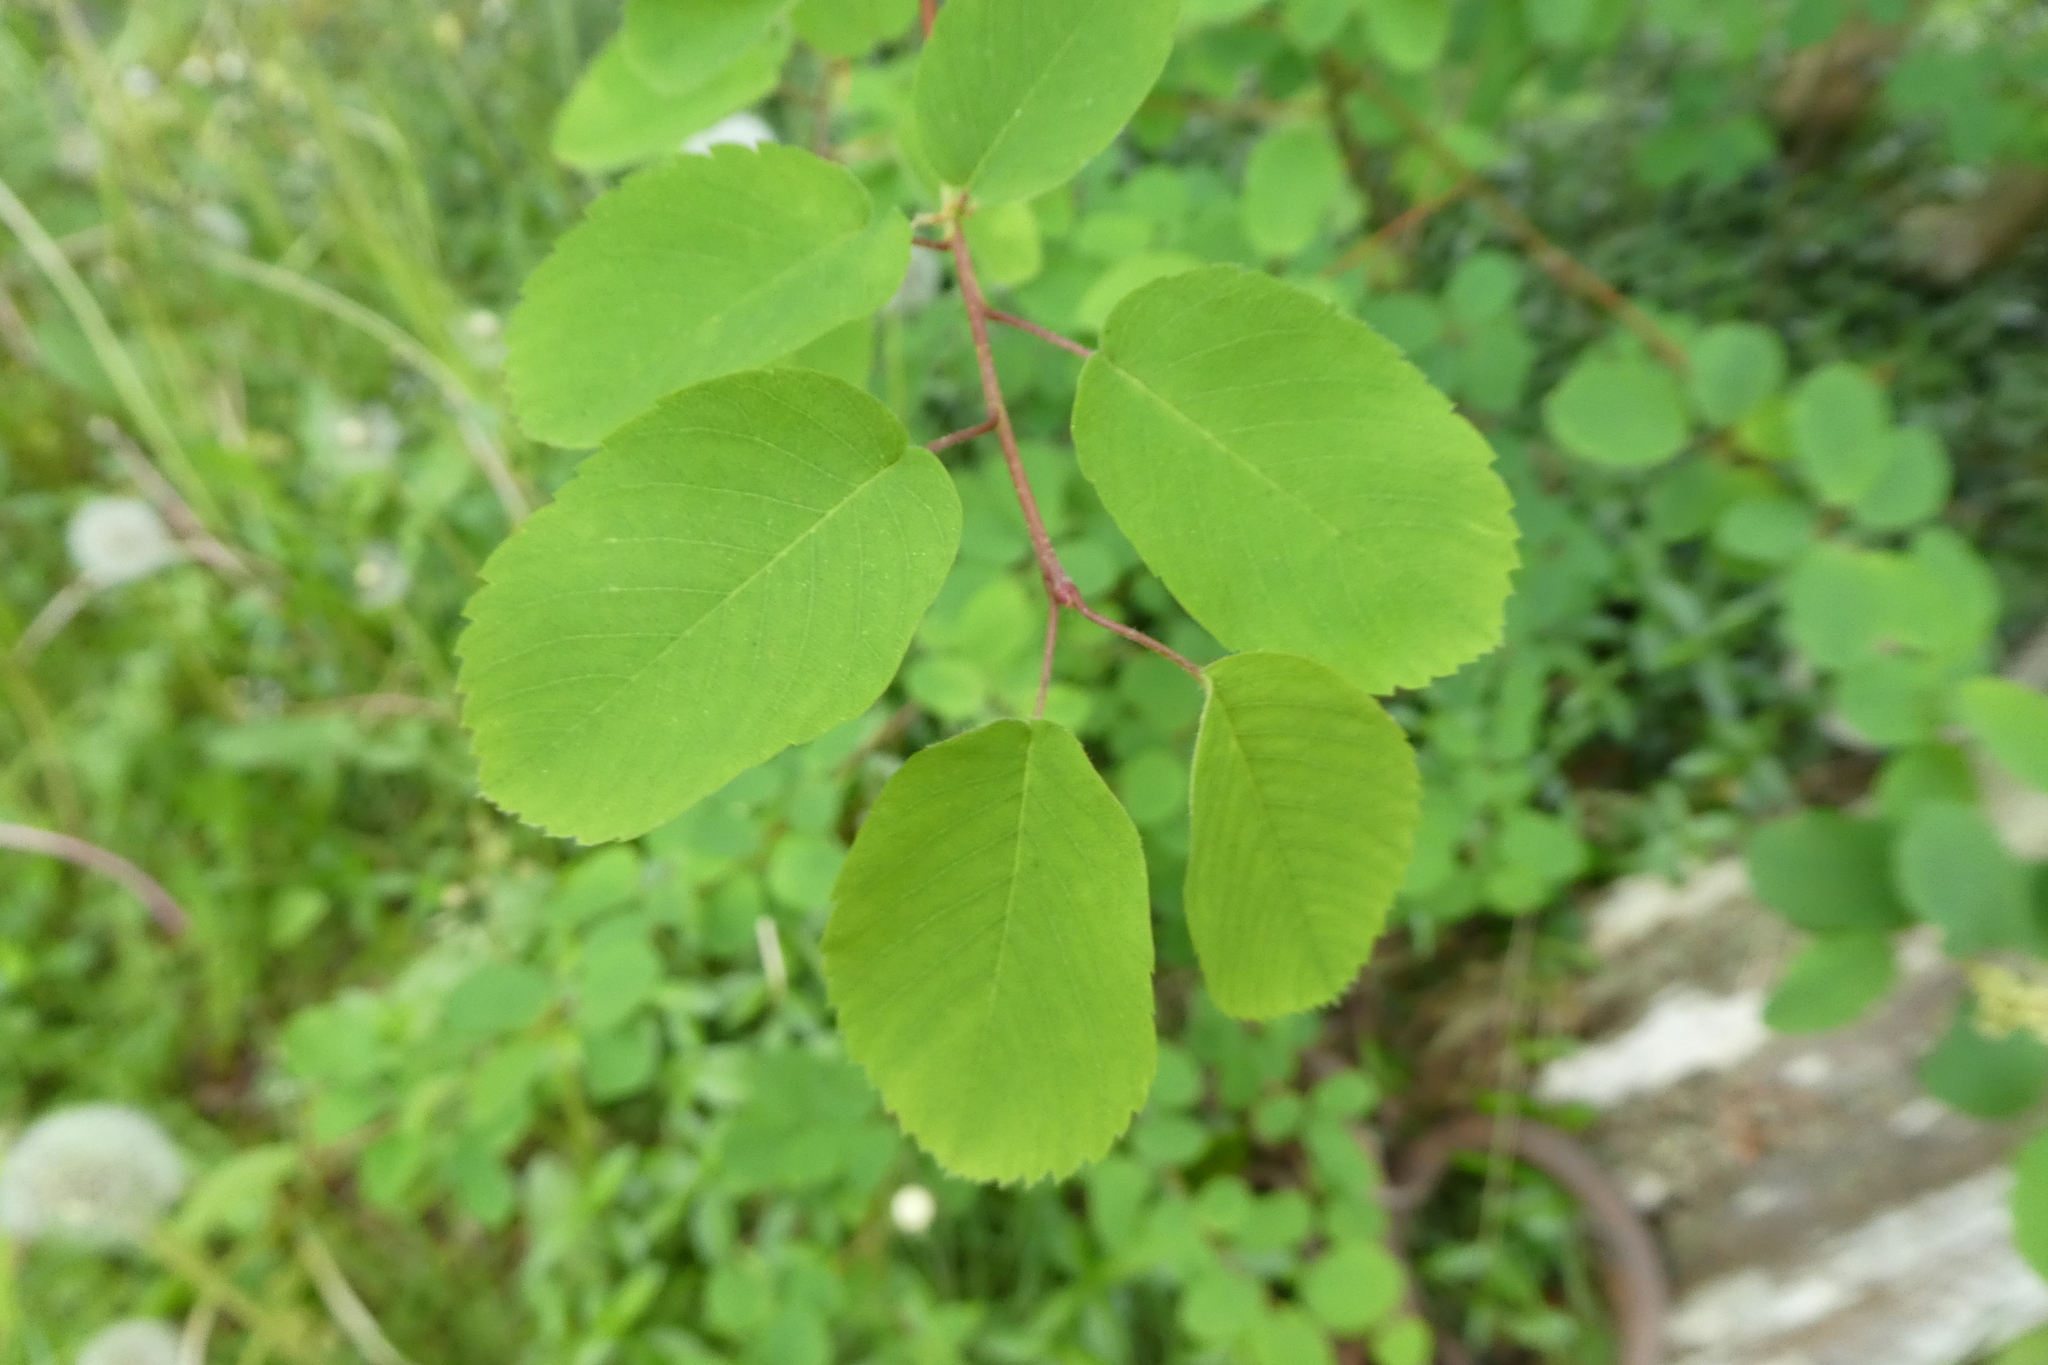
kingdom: Plantae
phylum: Tracheophyta
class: Magnoliopsida
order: Rosales
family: Rosaceae
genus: Amelanchier
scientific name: Amelanchier alnifolia
